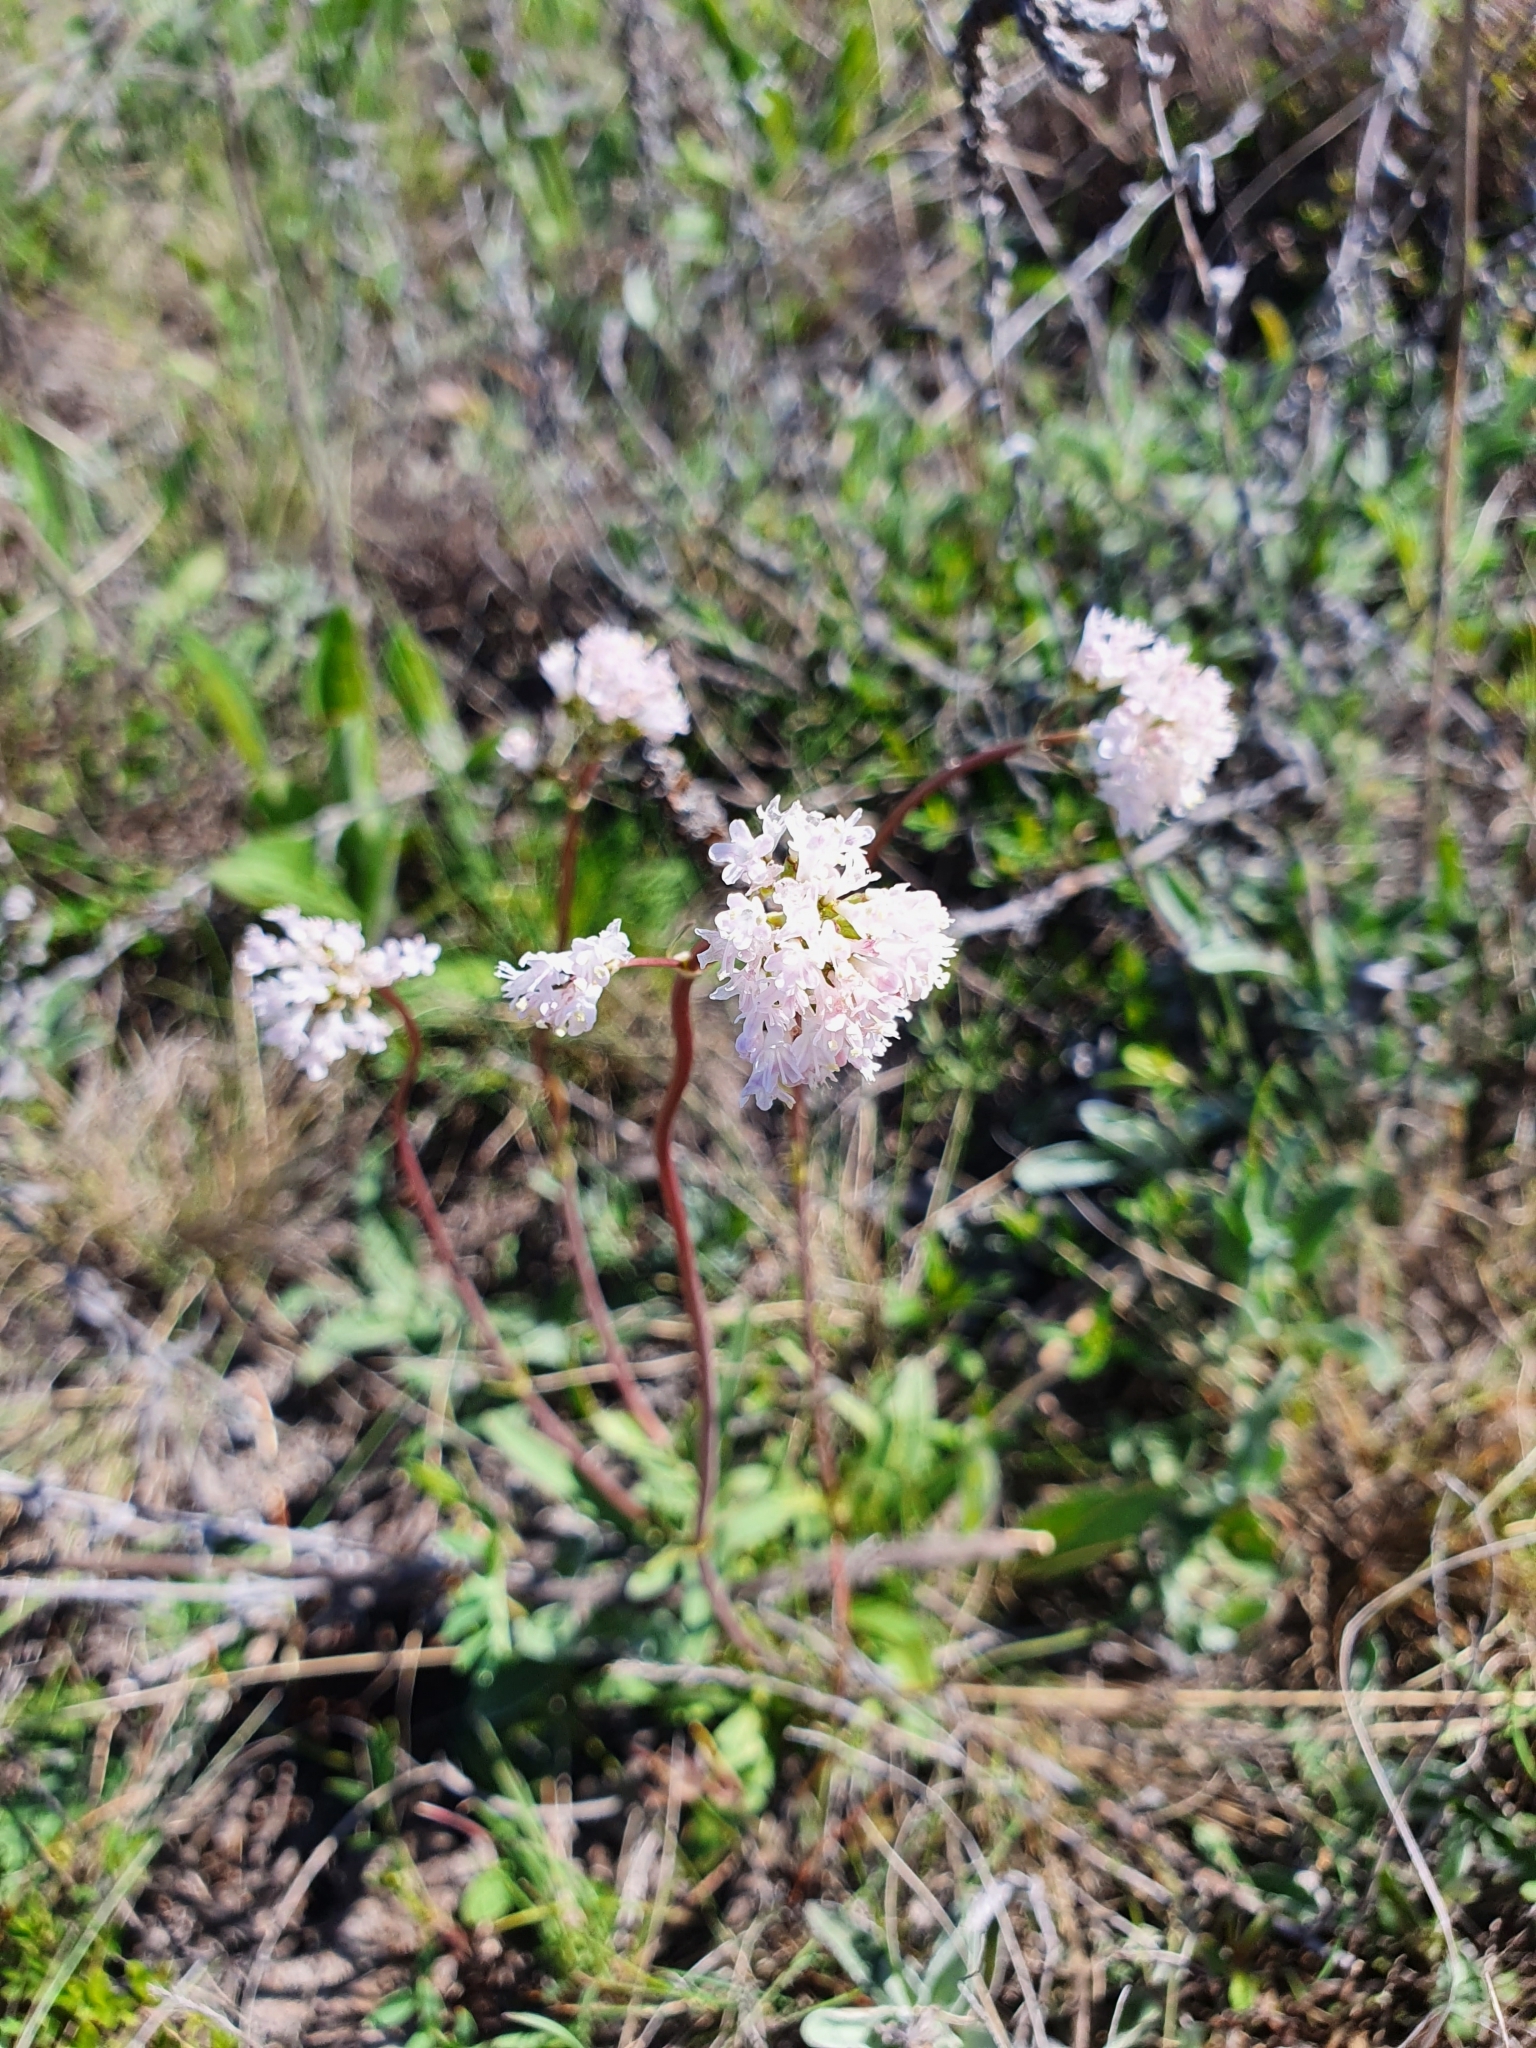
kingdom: Plantae
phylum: Tracheophyta
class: Magnoliopsida
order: Dipsacales
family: Caprifoliaceae
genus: Valeriana
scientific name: Valeriana tuberosa
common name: Tuberous valerian
